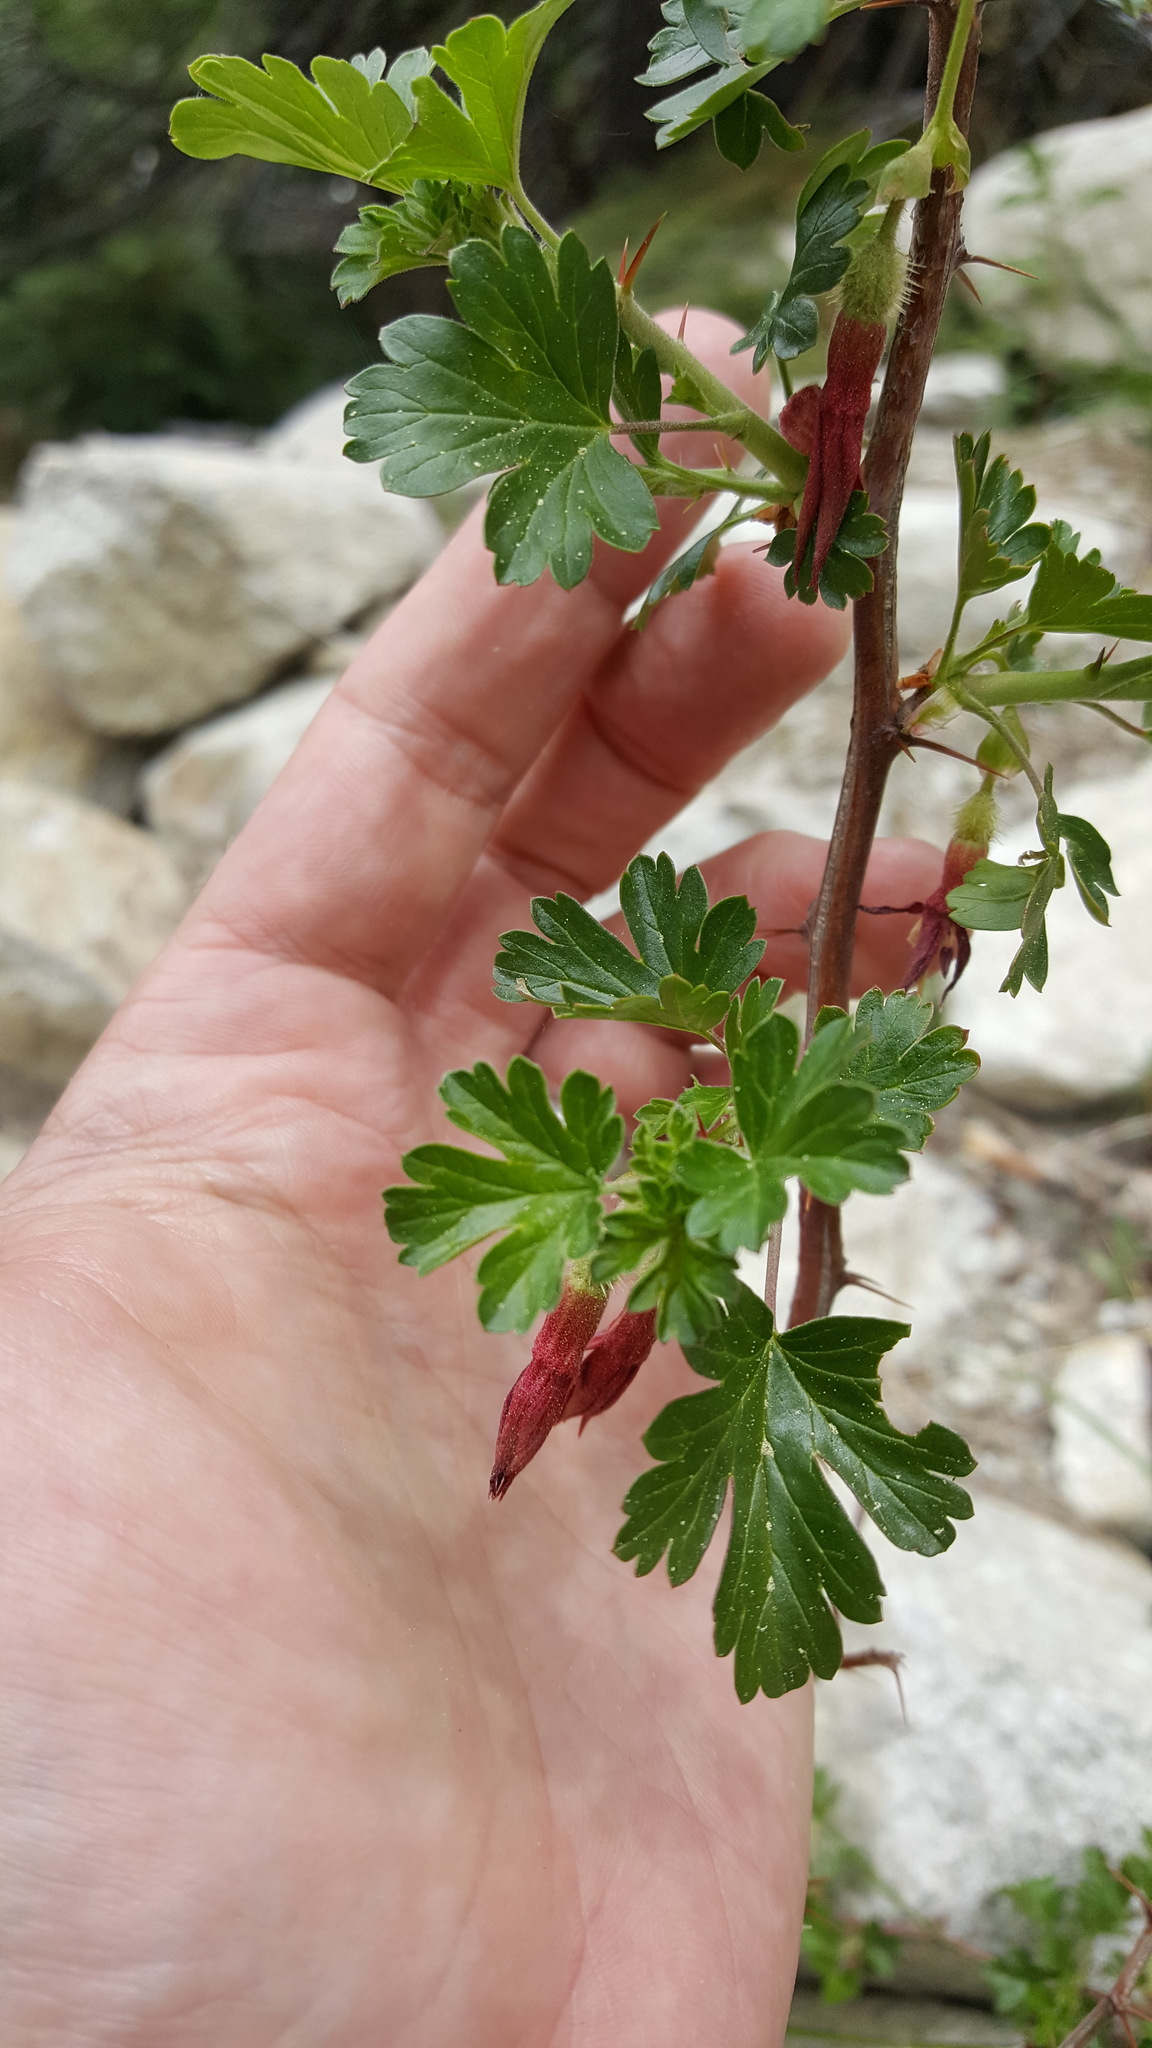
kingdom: Plantae
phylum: Tracheophyta
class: Magnoliopsida
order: Saxifragales
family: Grossulariaceae
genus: Ribes
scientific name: Ribes roezlii
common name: Sierra gooseberry
